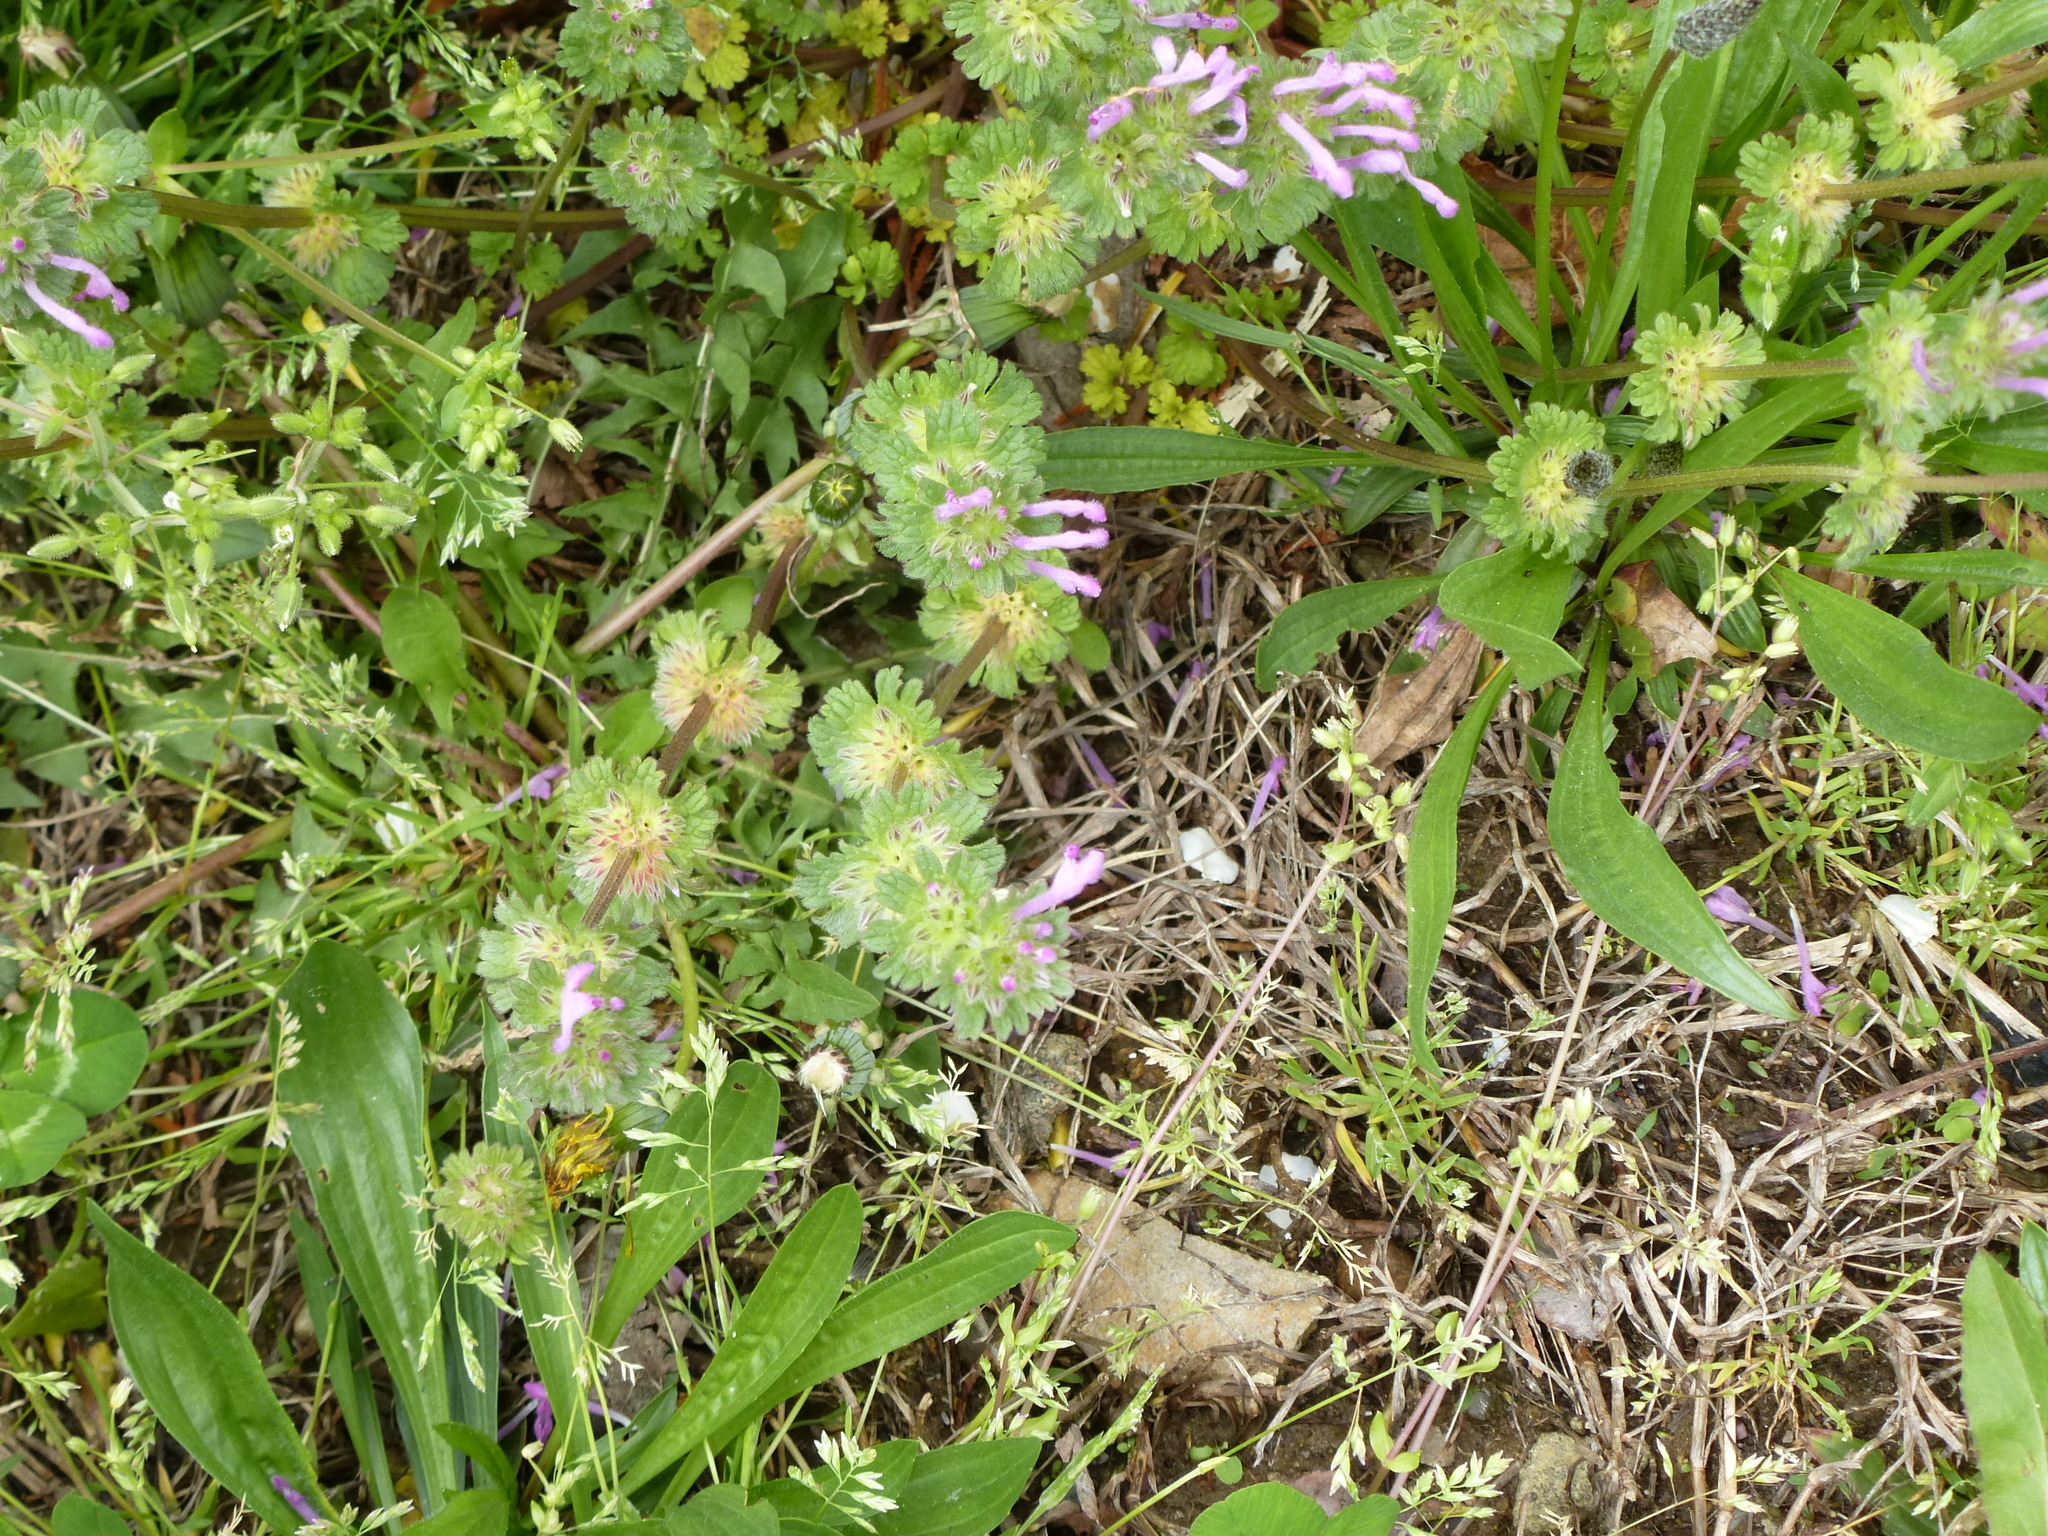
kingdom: Plantae
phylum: Tracheophyta
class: Magnoliopsida
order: Lamiales
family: Lamiaceae
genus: Lamium
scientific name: Lamium amplexicaule
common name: Henbit dead-nettle
